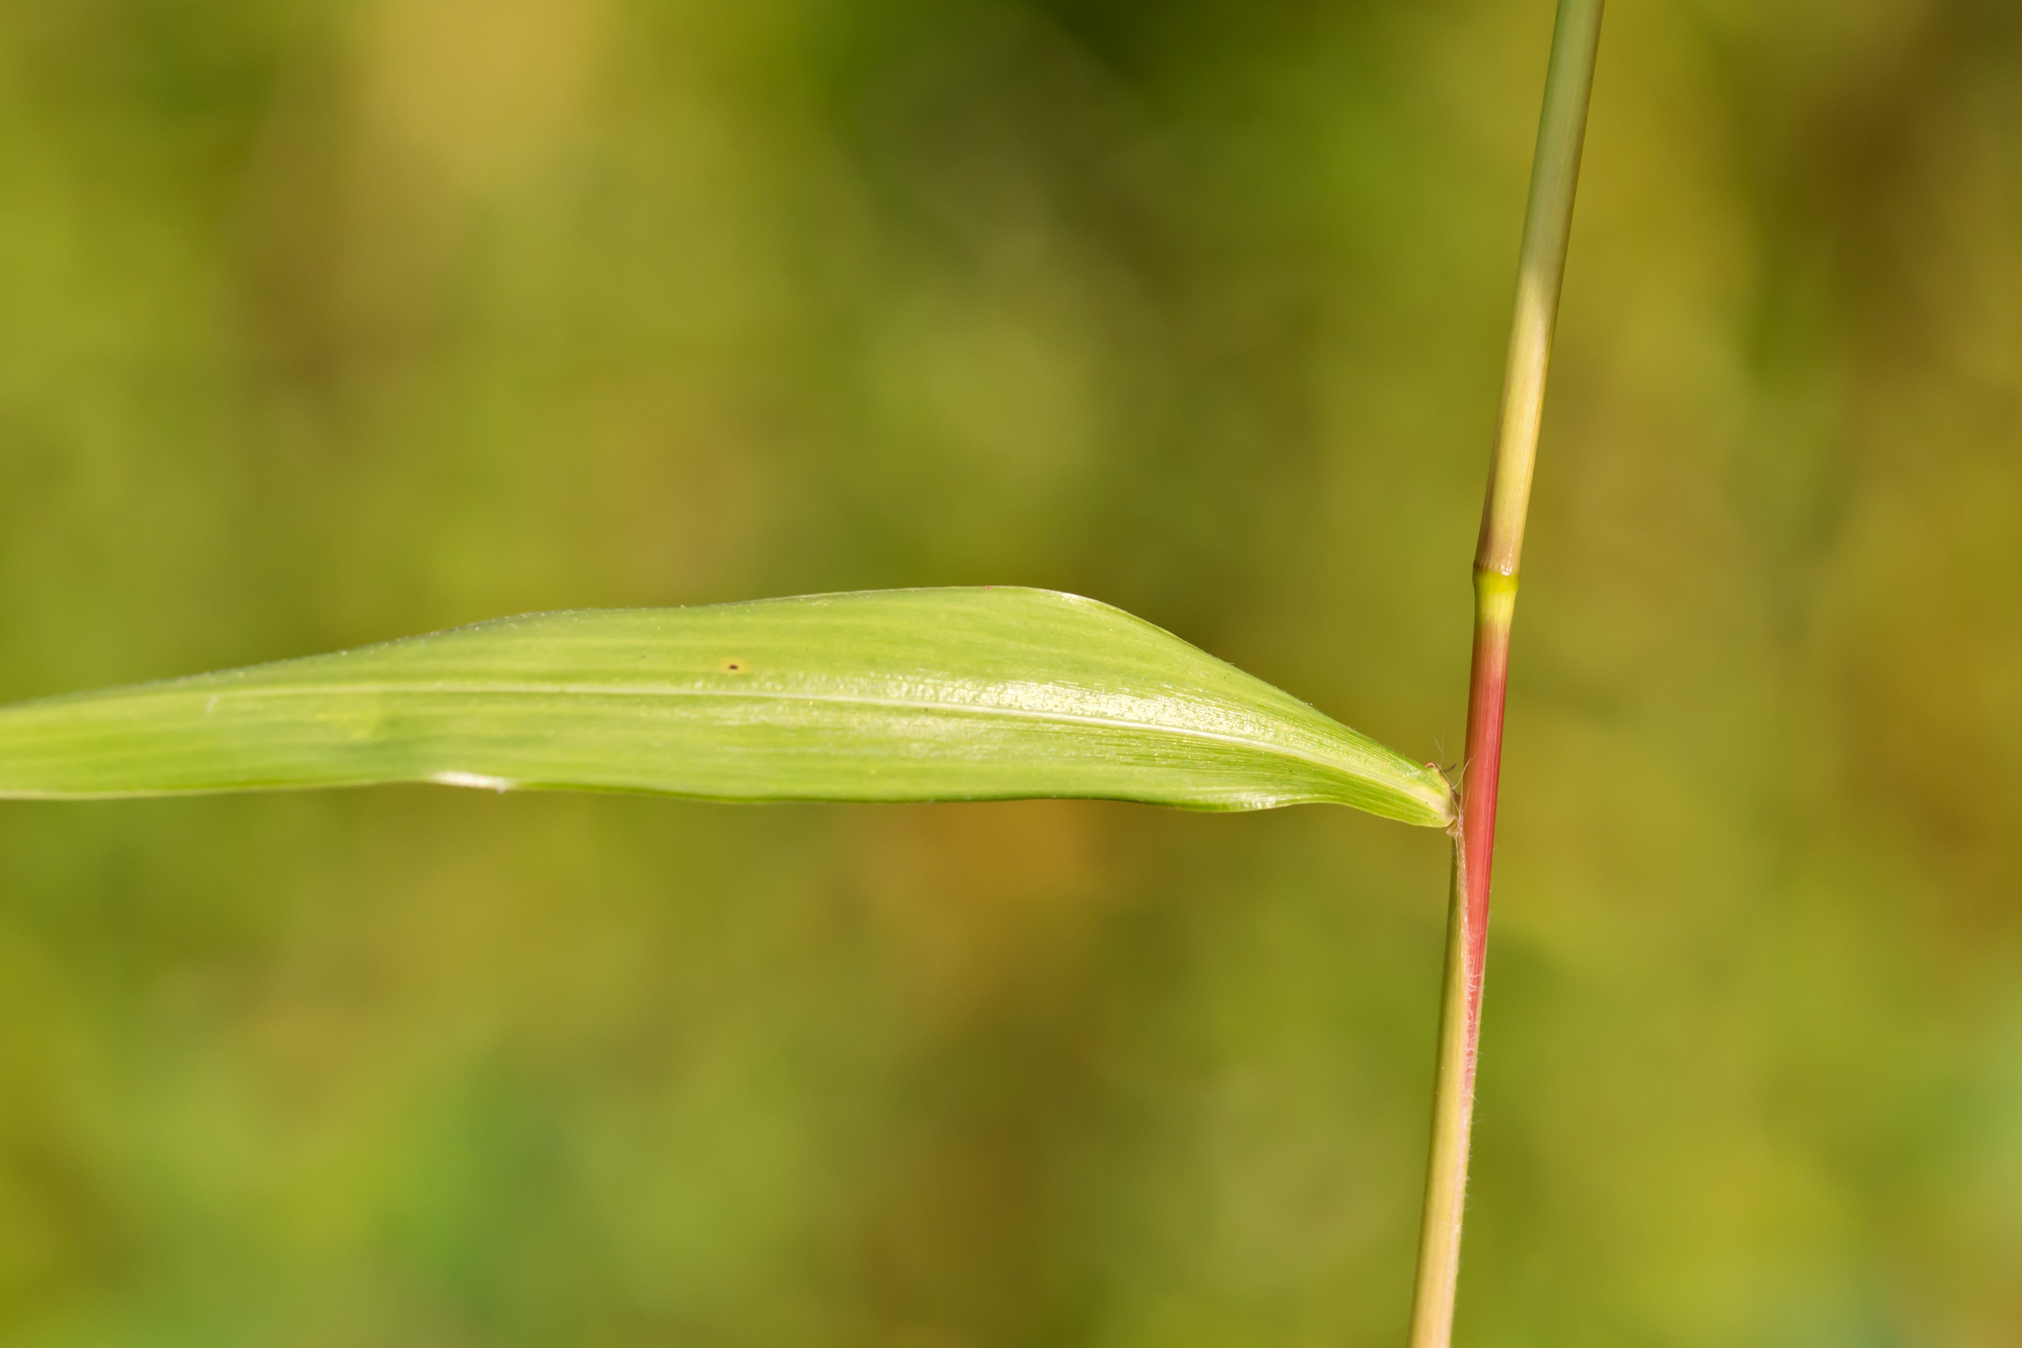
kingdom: Plantae
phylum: Tracheophyta
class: Liliopsida
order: Poales
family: Poaceae
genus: Microstegium
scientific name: Microstegium vimineum
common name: Japanese stiltgrass
